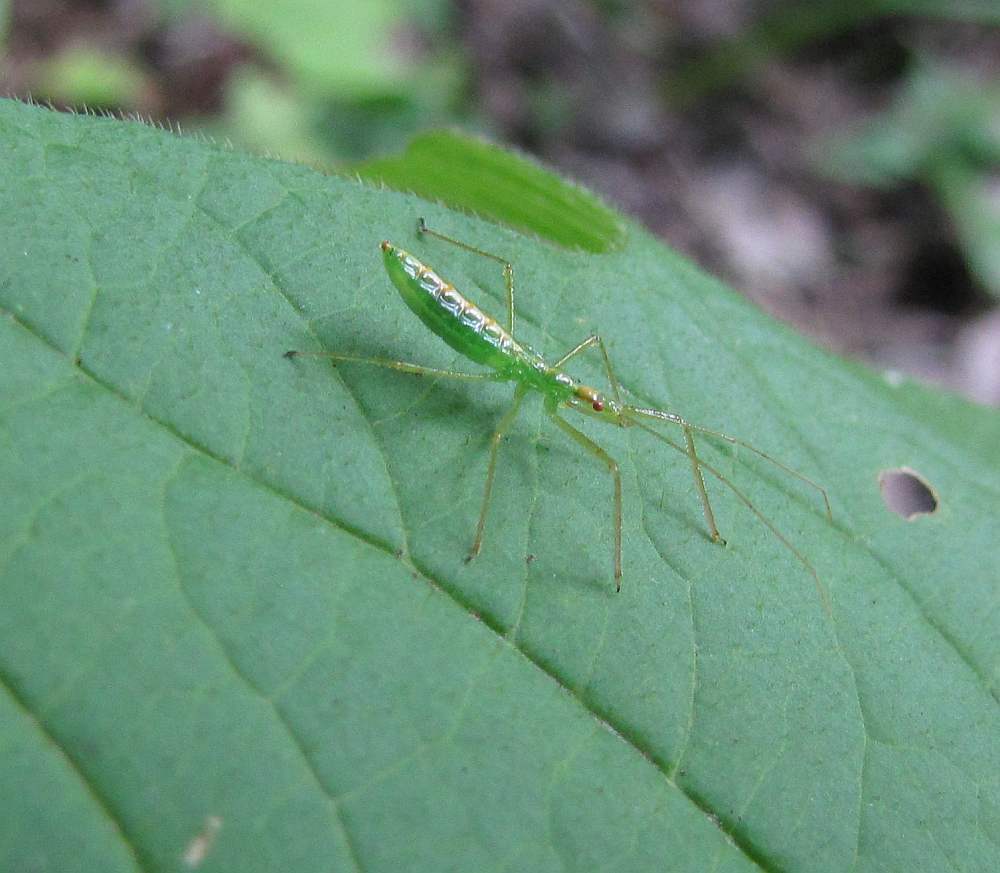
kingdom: Animalia
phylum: Arthropoda
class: Insecta
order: Hemiptera
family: Reduviidae
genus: Zelus
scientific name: Zelus luridus
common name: Pale green assassin bug
